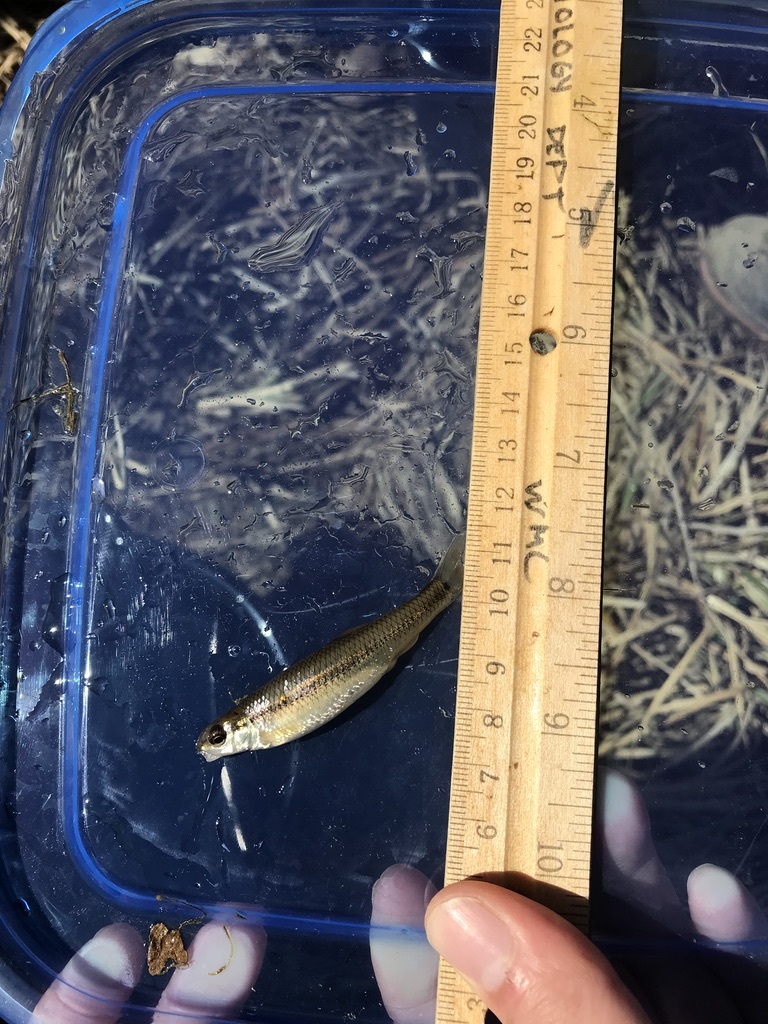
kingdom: Animalia
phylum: Chordata
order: Cypriniformes
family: Cyprinidae
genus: Pimephales
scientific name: Pimephales notatus
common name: Bluntnose minnow
